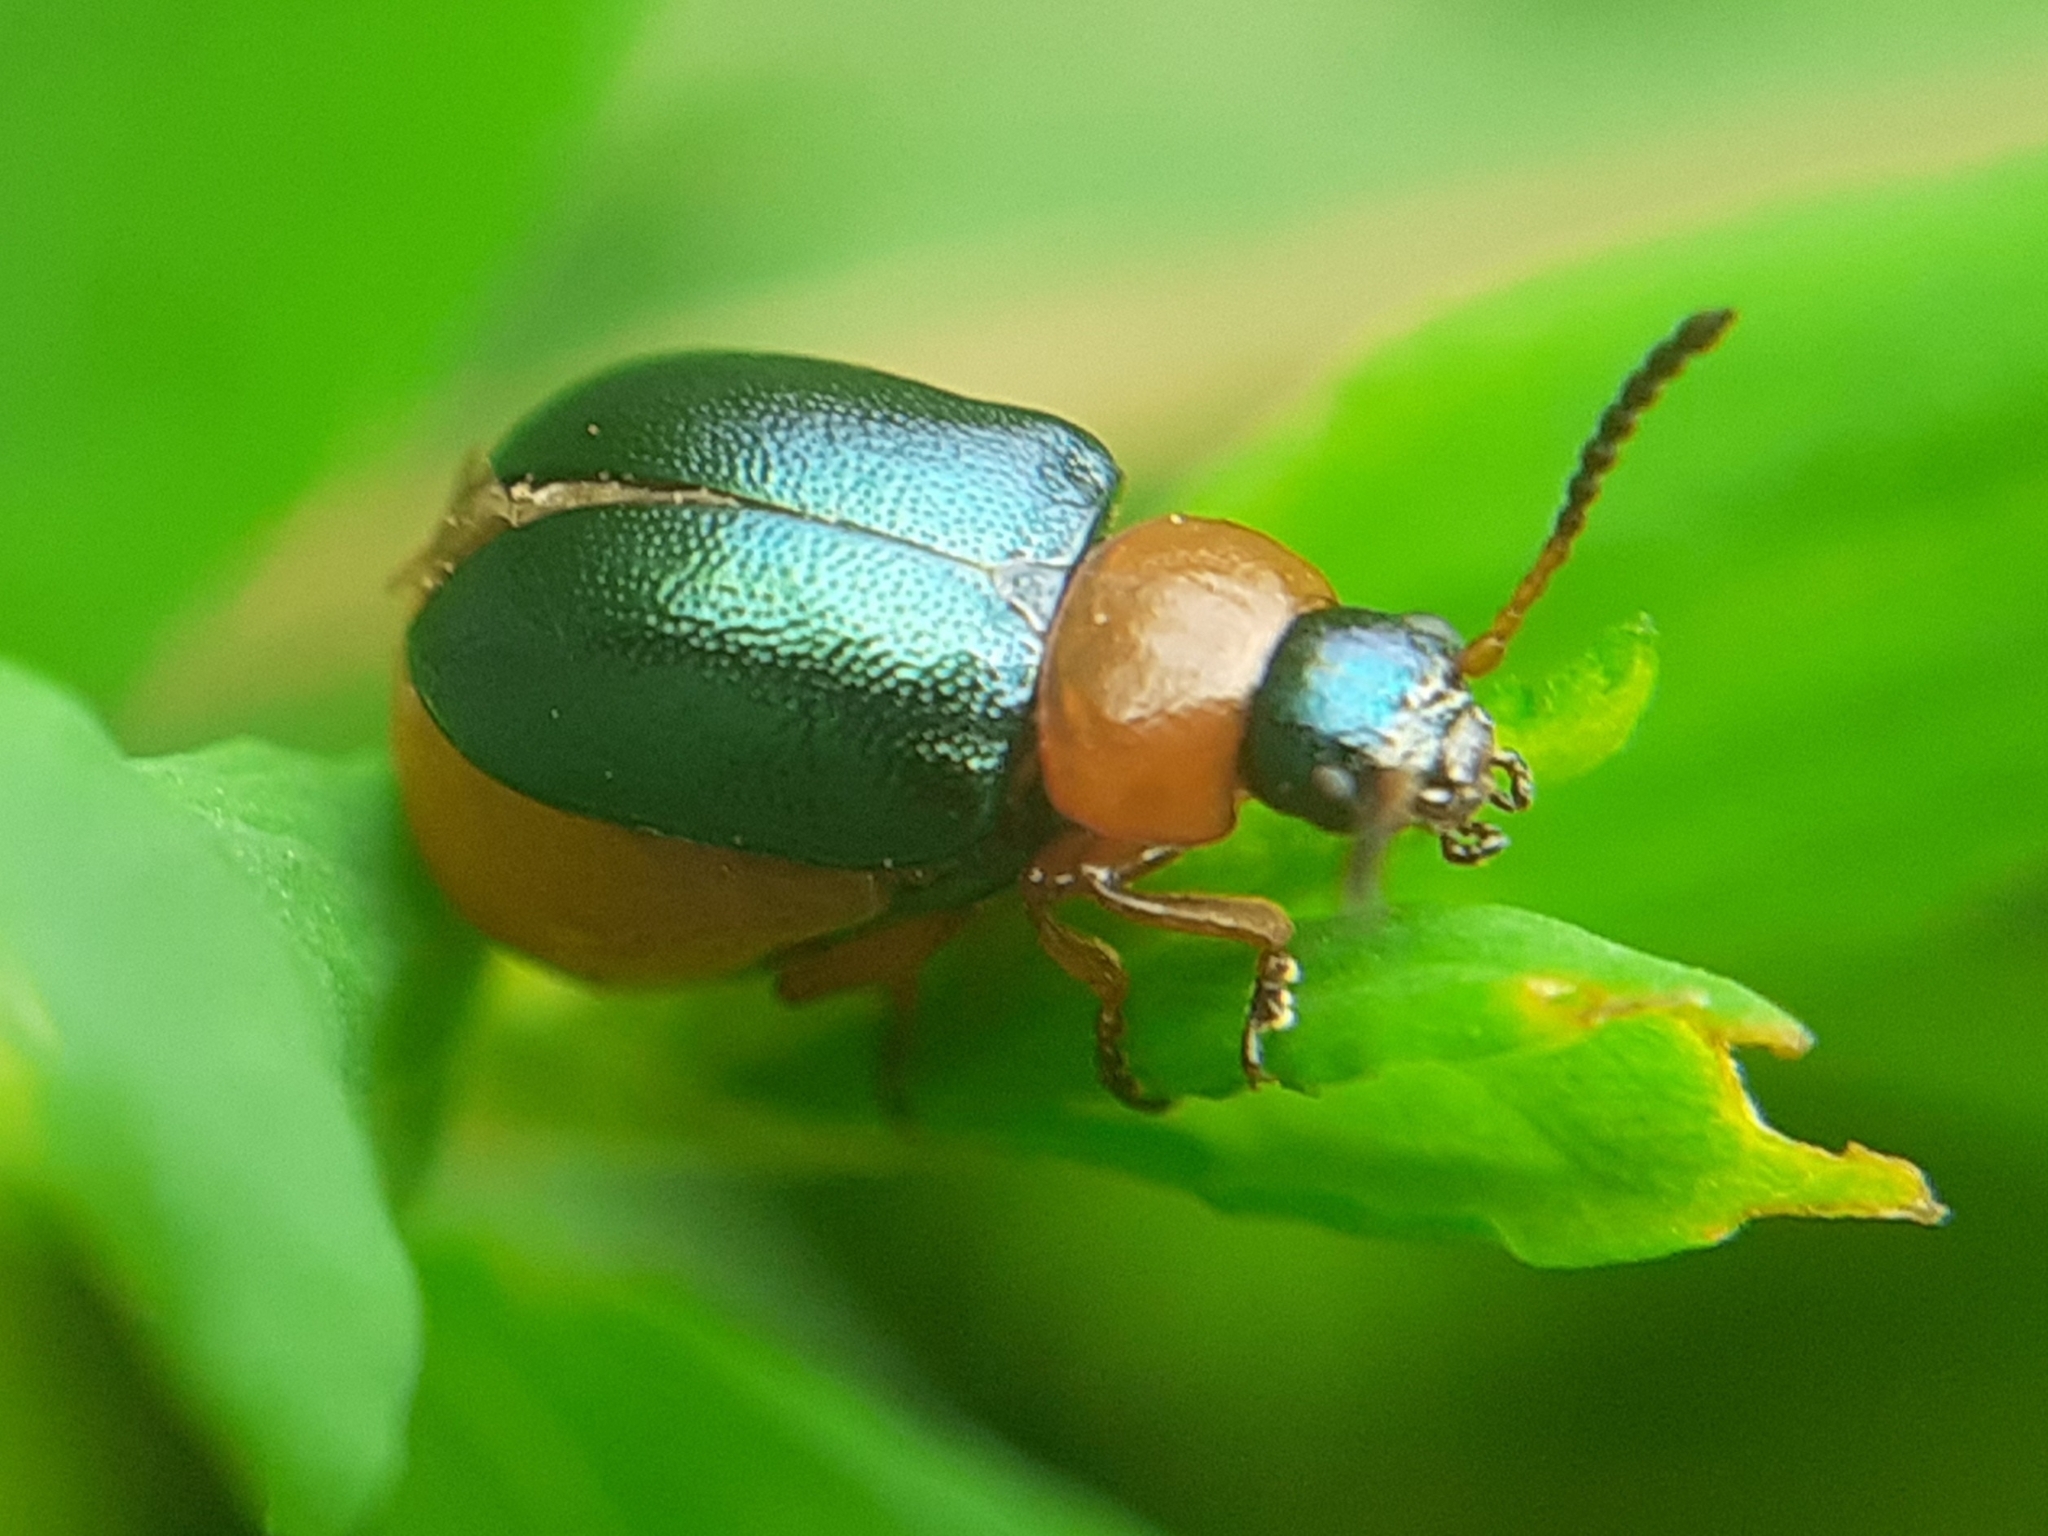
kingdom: Animalia
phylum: Arthropoda
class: Insecta
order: Coleoptera
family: Chrysomelidae
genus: Gastrophysa
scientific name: Gastrophysa polygoni
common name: Knotweed leaf beetle
